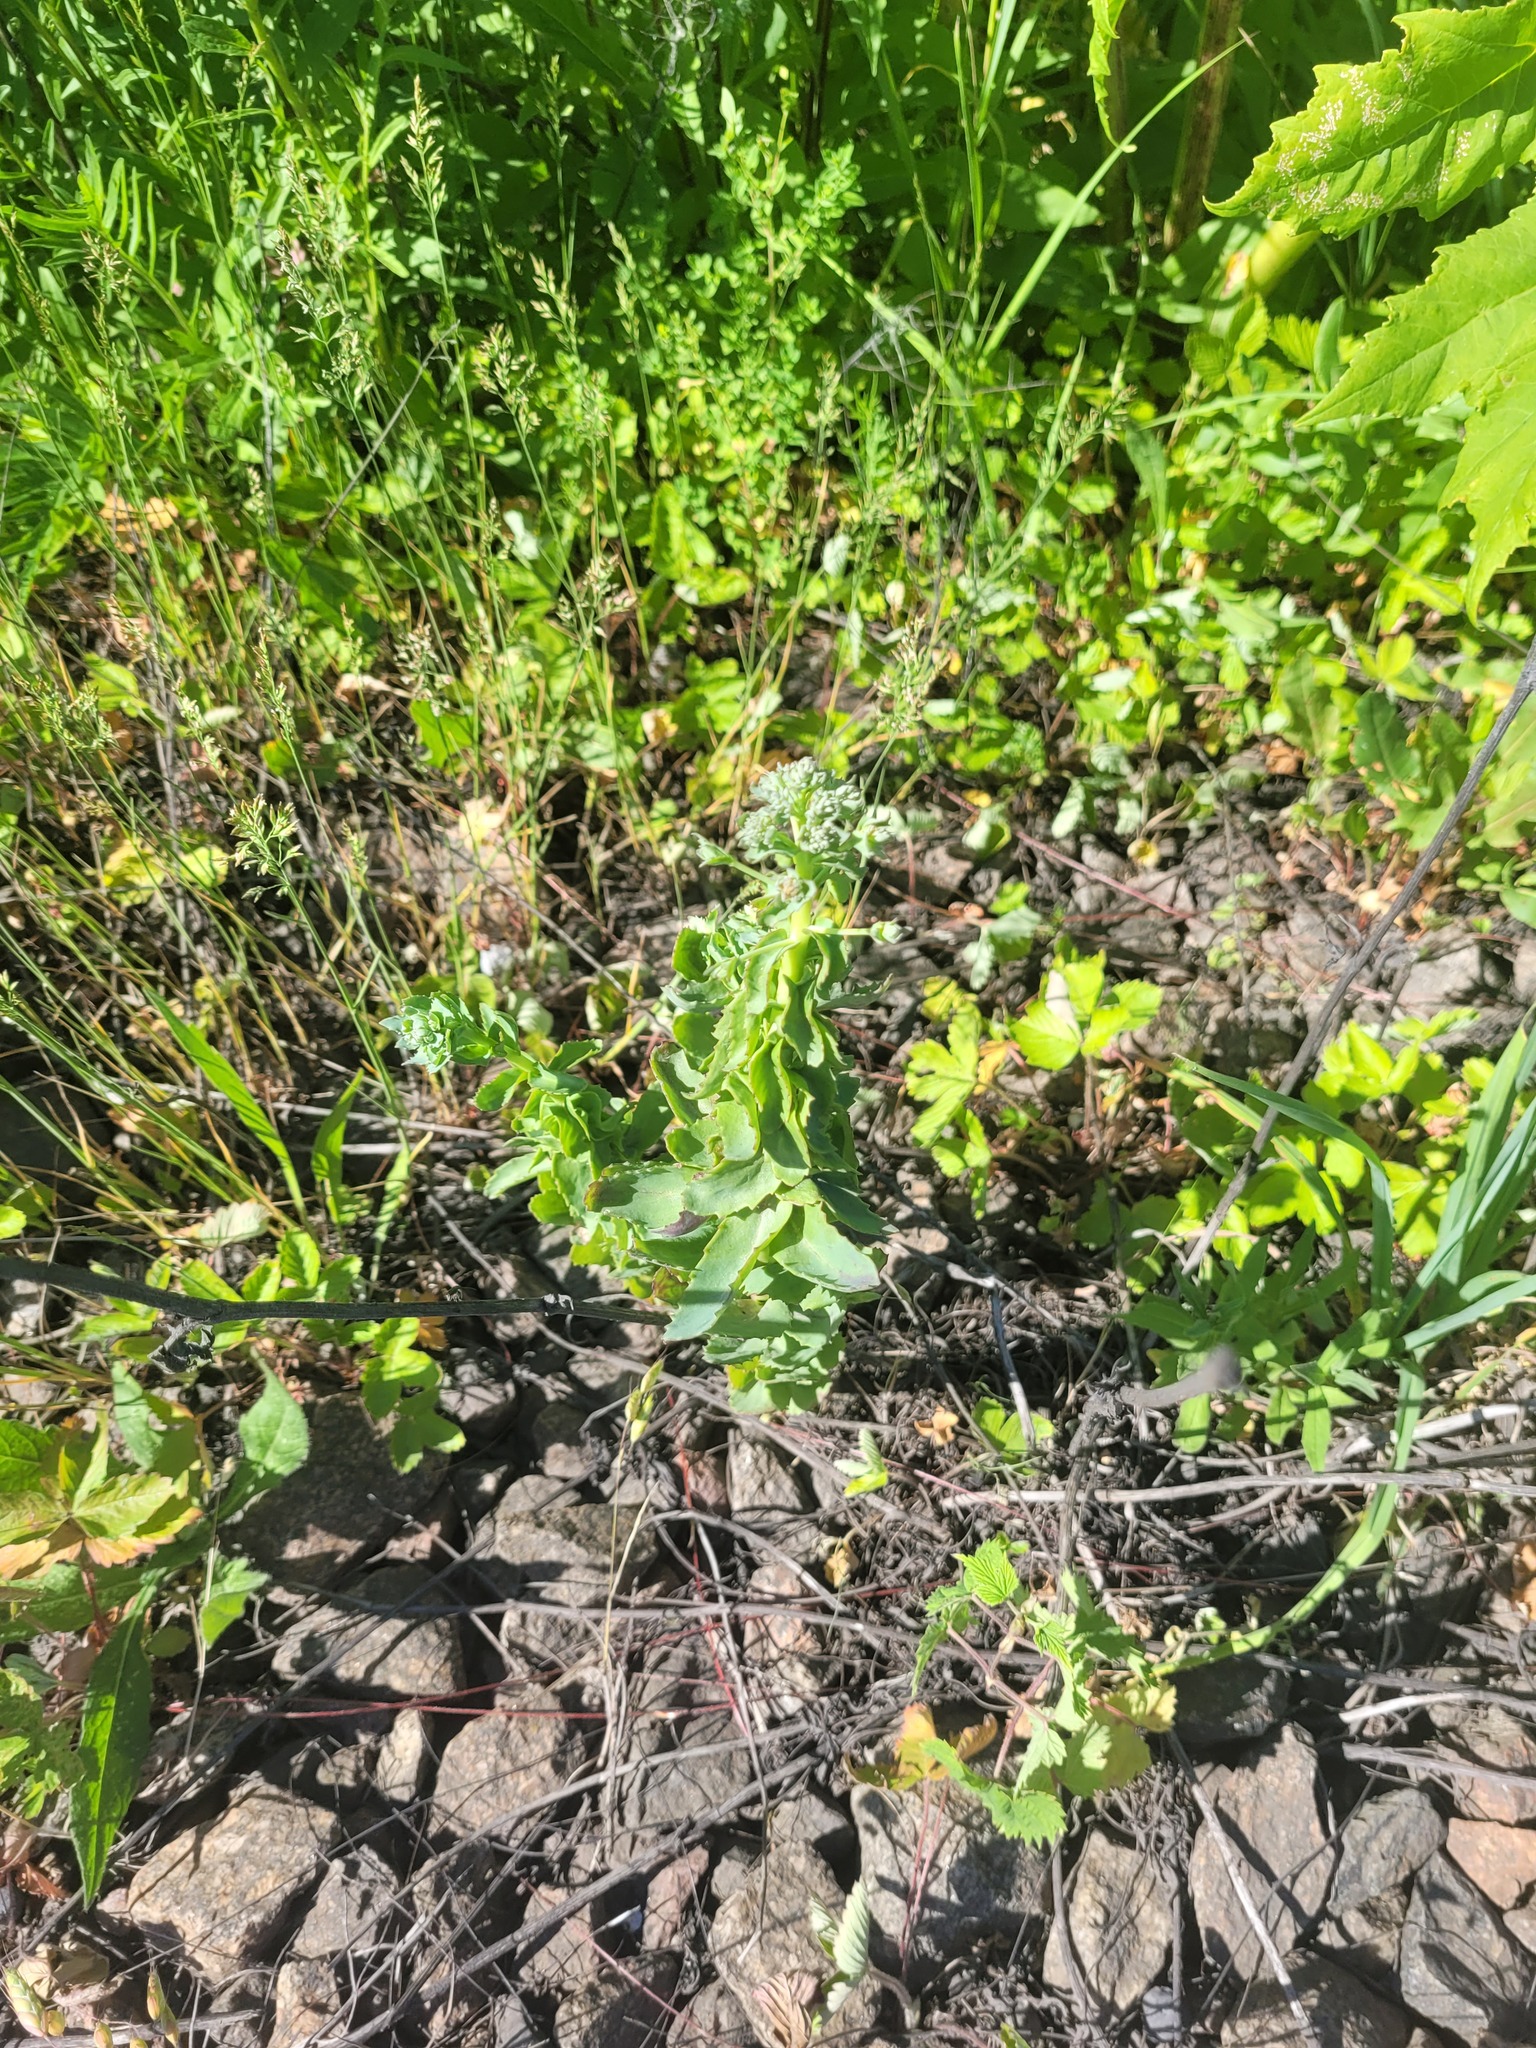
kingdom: Plantae
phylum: Tracheophyta
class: Magnoliopsida
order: Saxifragales
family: Crassulaceae
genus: Hylotelephium
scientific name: Hylotelephium telephium
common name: Live-forever
